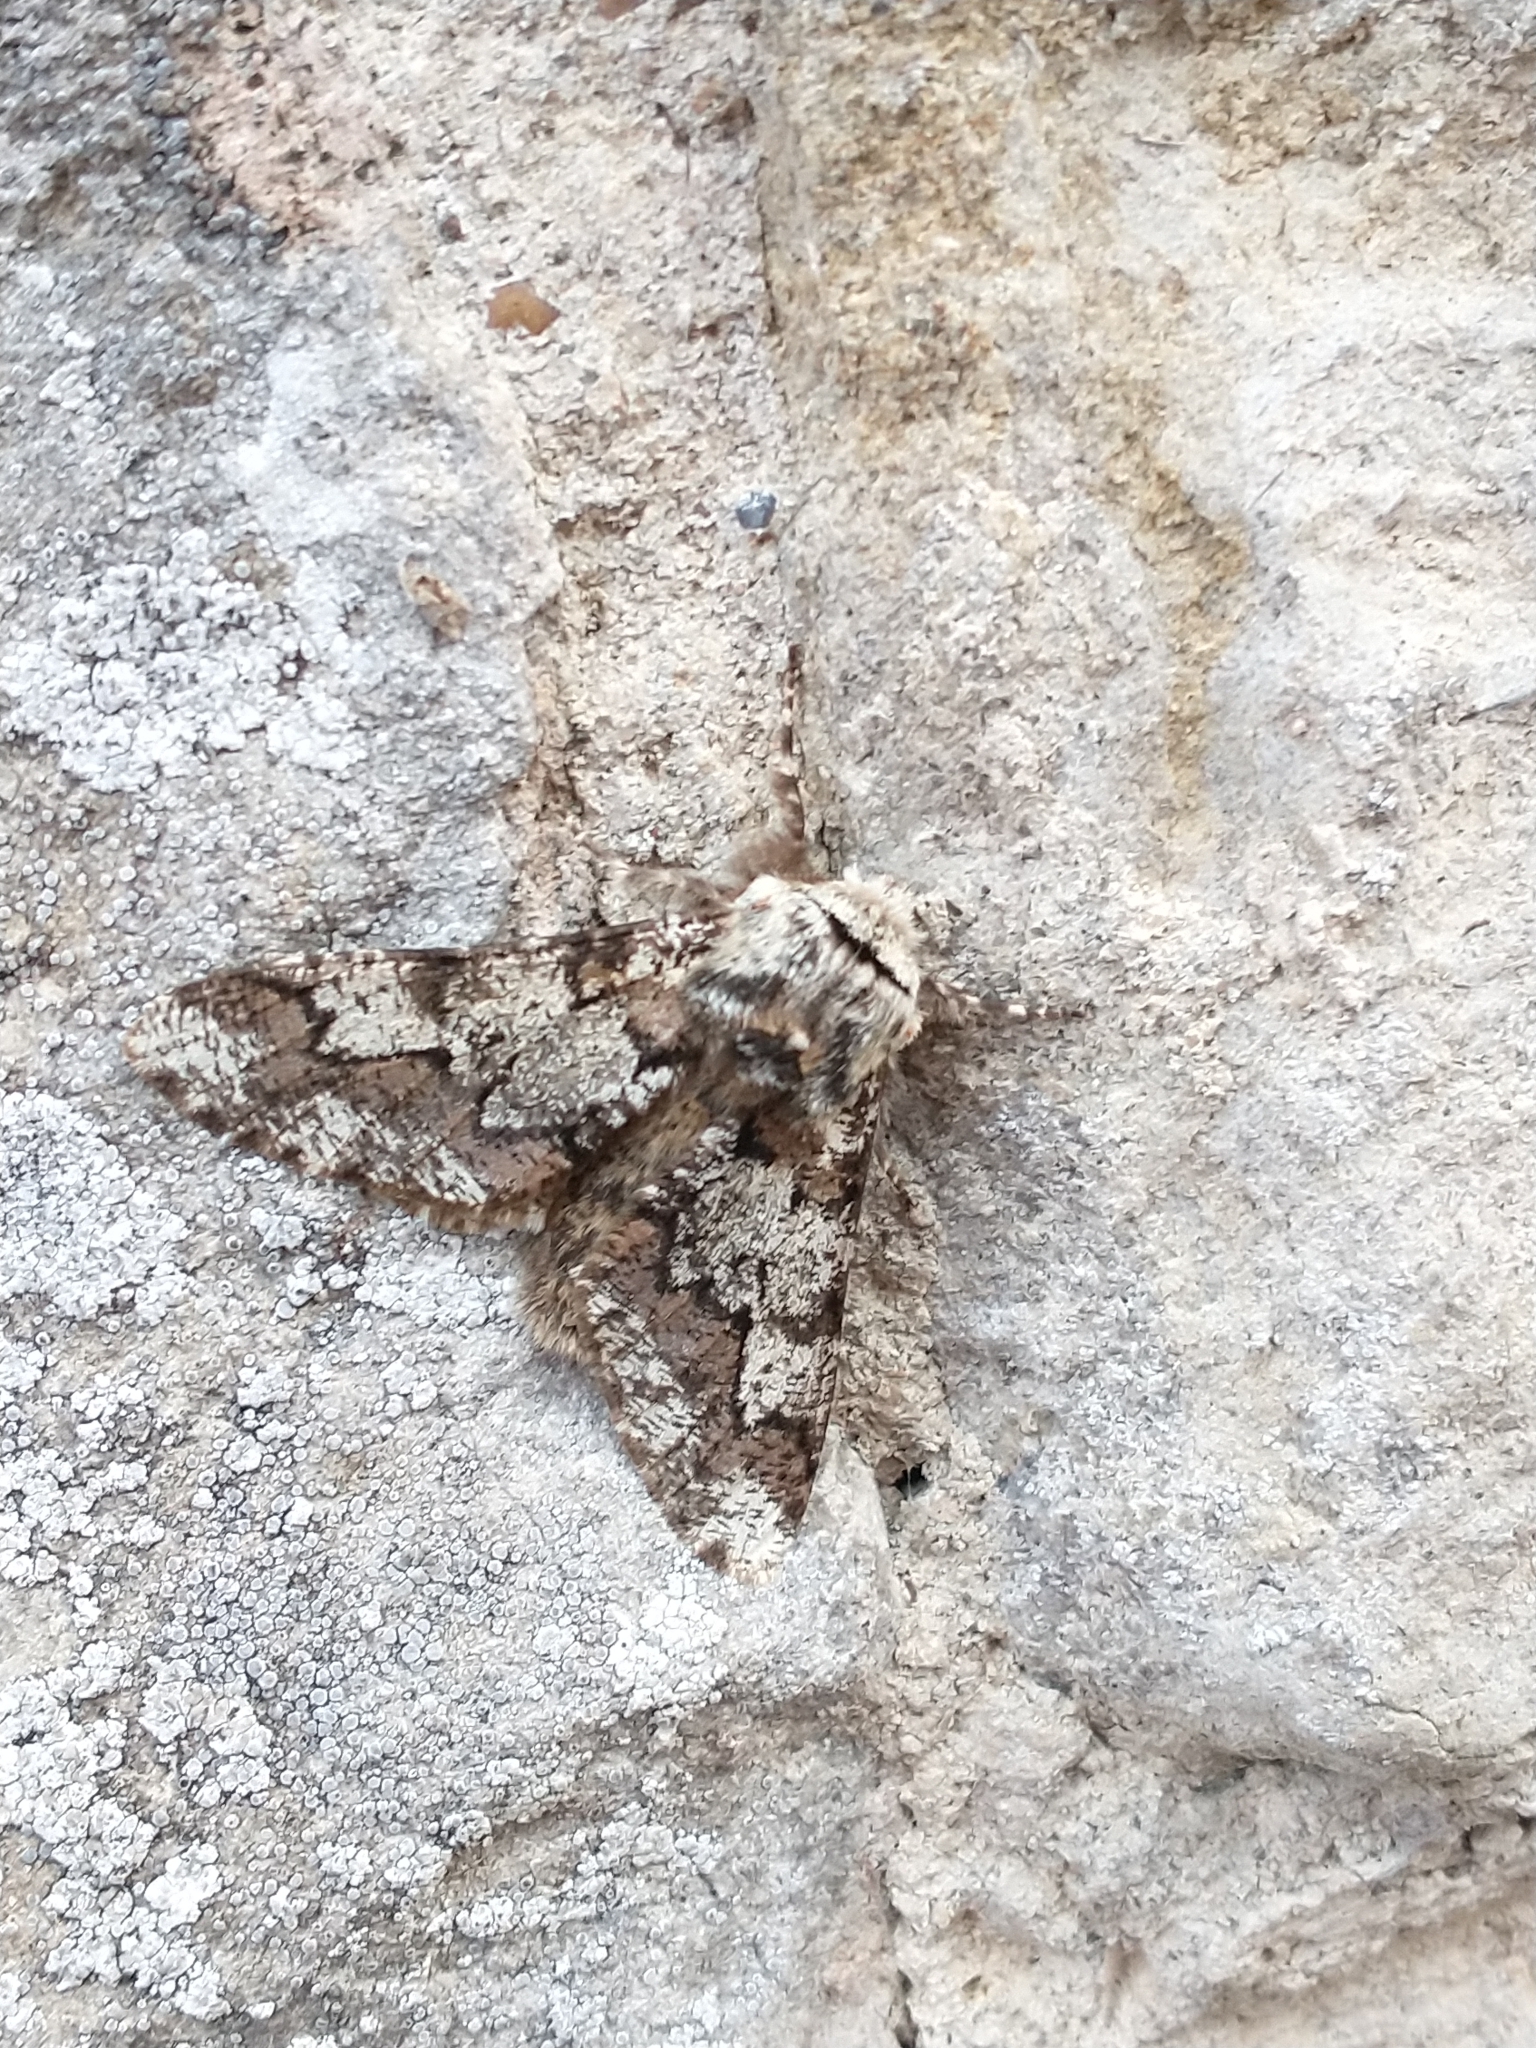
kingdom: Animalia
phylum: Arthropoda
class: Insecta
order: Lepidoptera
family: Geometridae
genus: Biston
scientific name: Biston strataria
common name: Oak beauty
